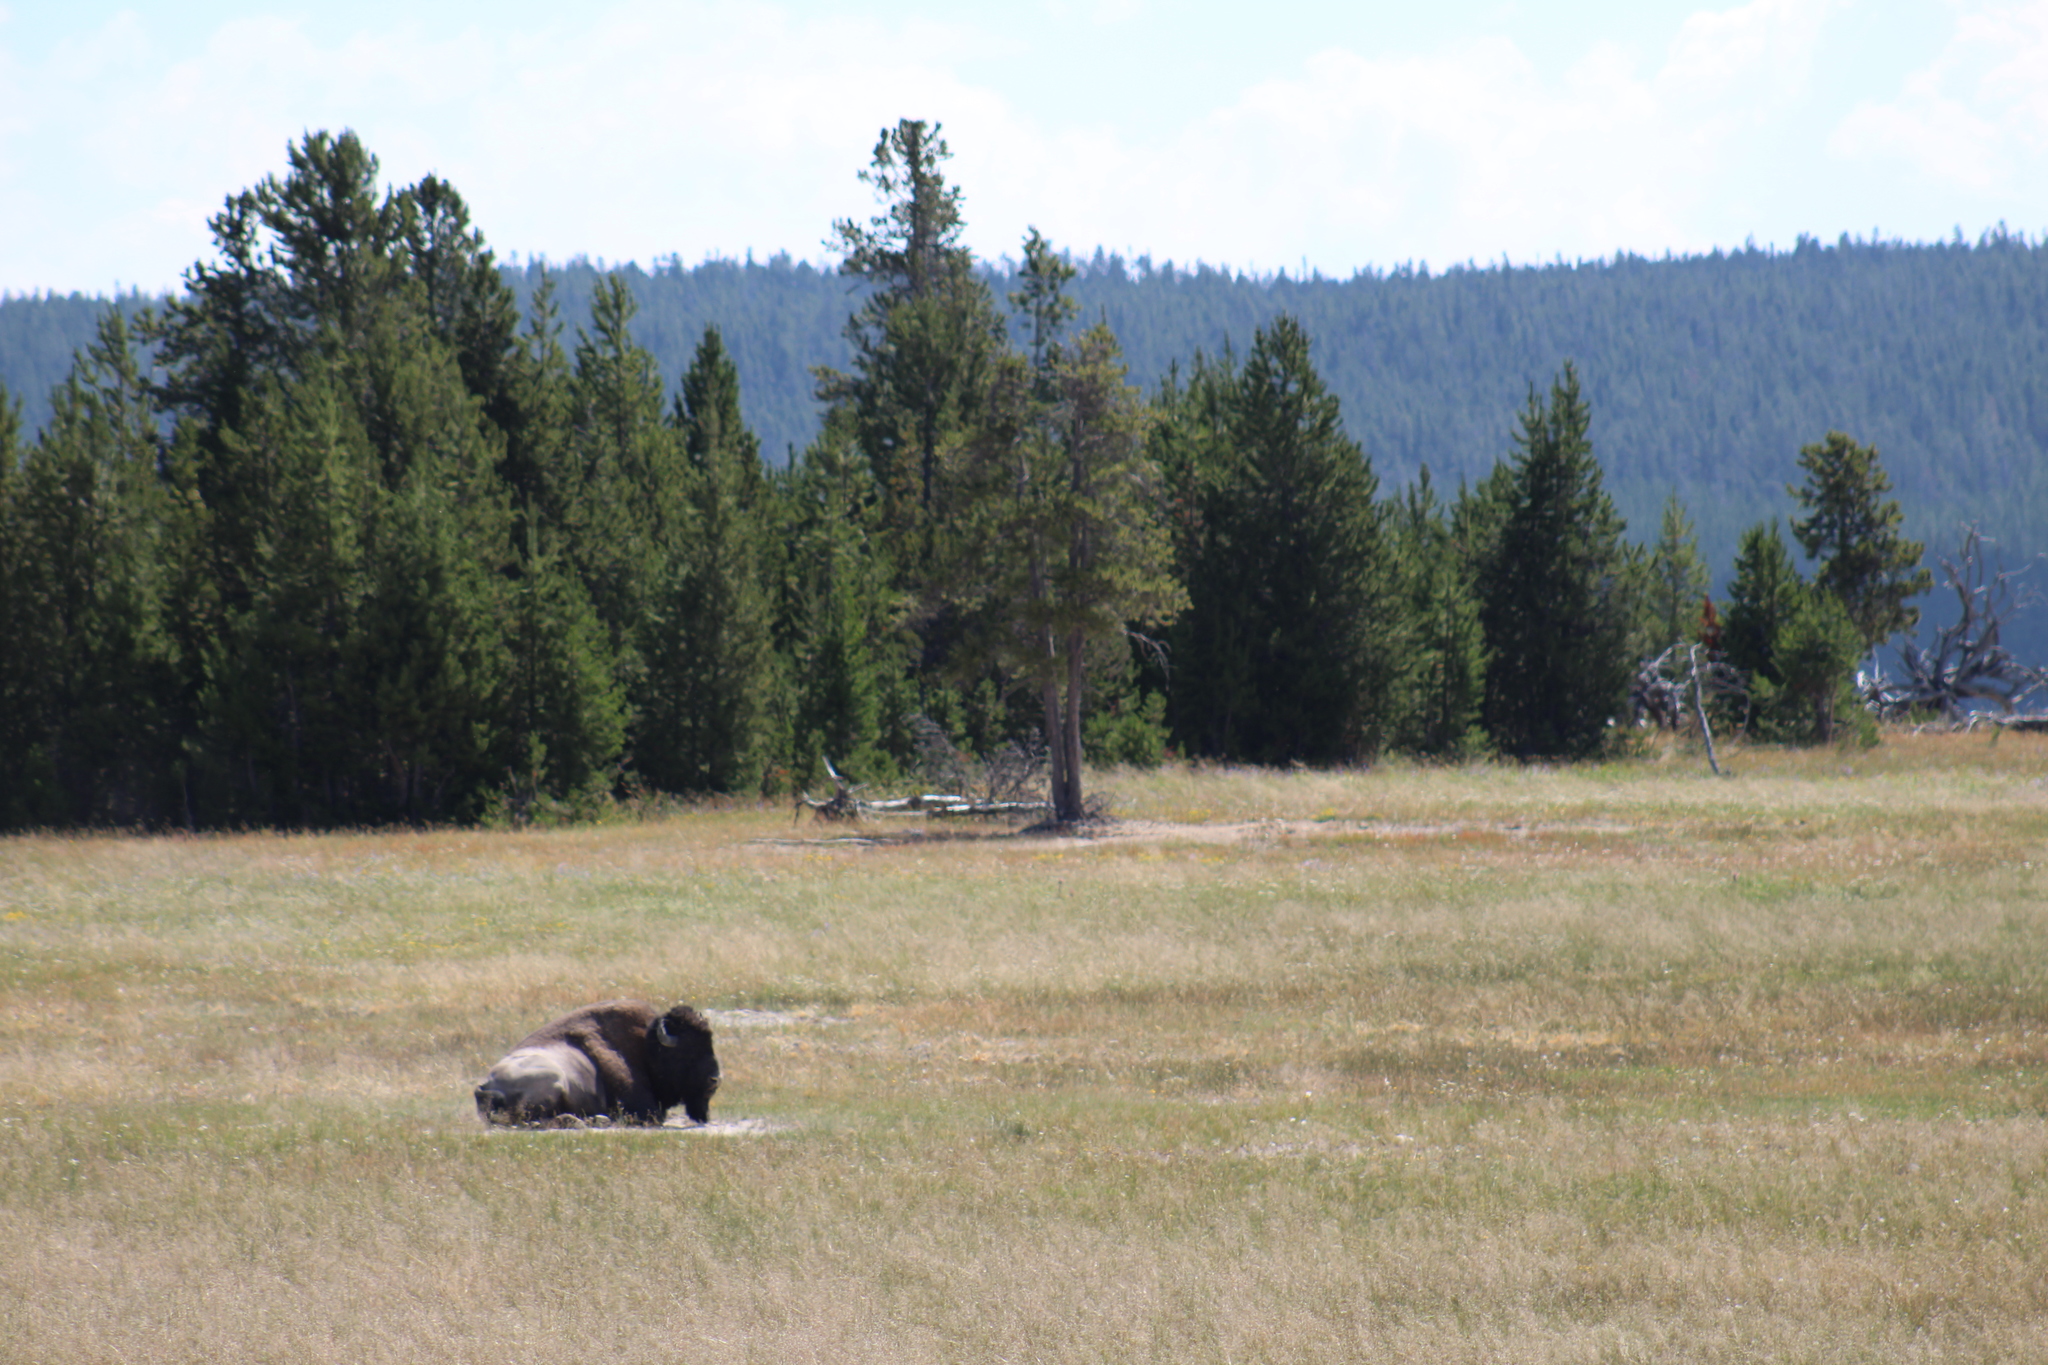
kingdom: Animalia
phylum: Chordata
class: Mammalia
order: Artiodactyla
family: Bovidae
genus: Bison
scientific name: Bison bison
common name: American bison
